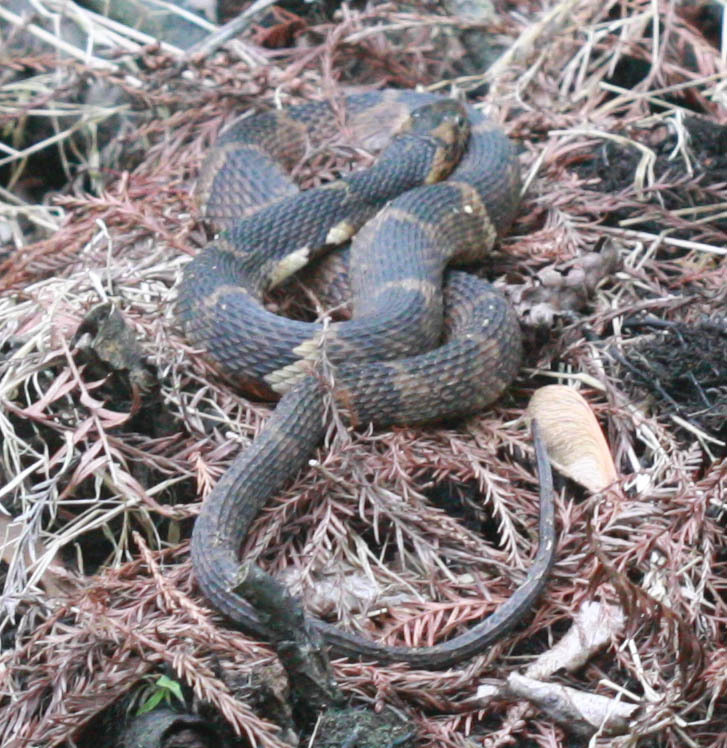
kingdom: Animalia
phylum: Chordata
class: Squamata
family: Colubridae
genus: Nerodia
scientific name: Nerodia fasciata
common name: Southern water snake
